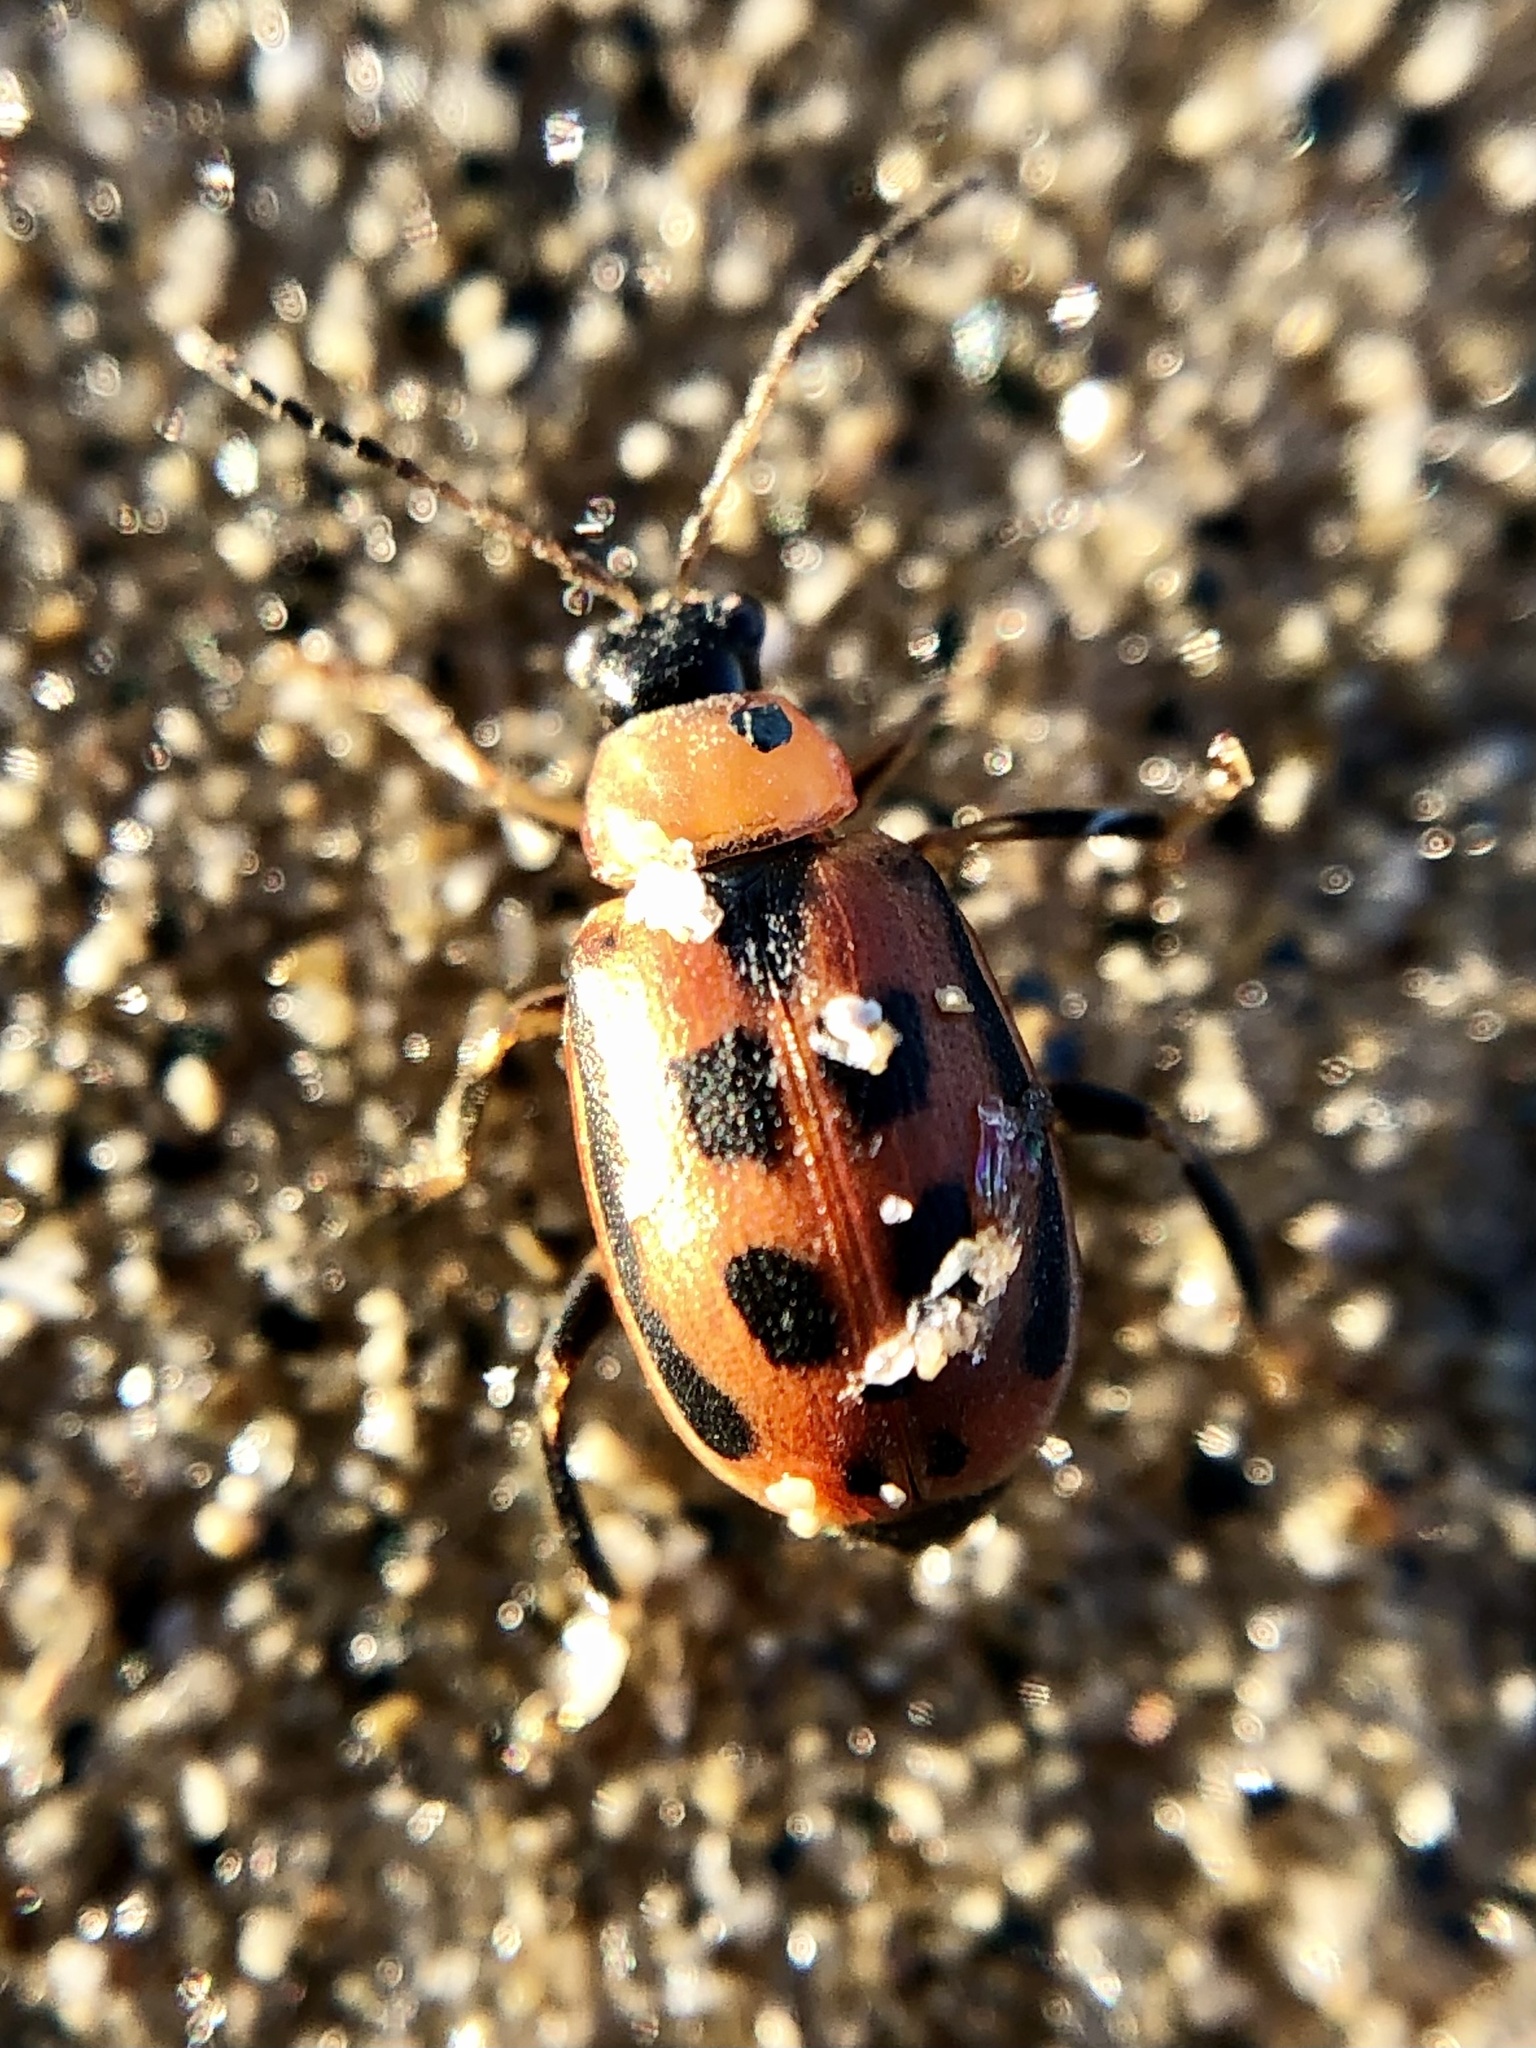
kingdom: Animalia
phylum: Arthropoda
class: Insecta
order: Coleoptera
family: Chrysomelidae
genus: Cerotoma
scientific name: Cerotoma trifurcata
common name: Bean leaf beetle
